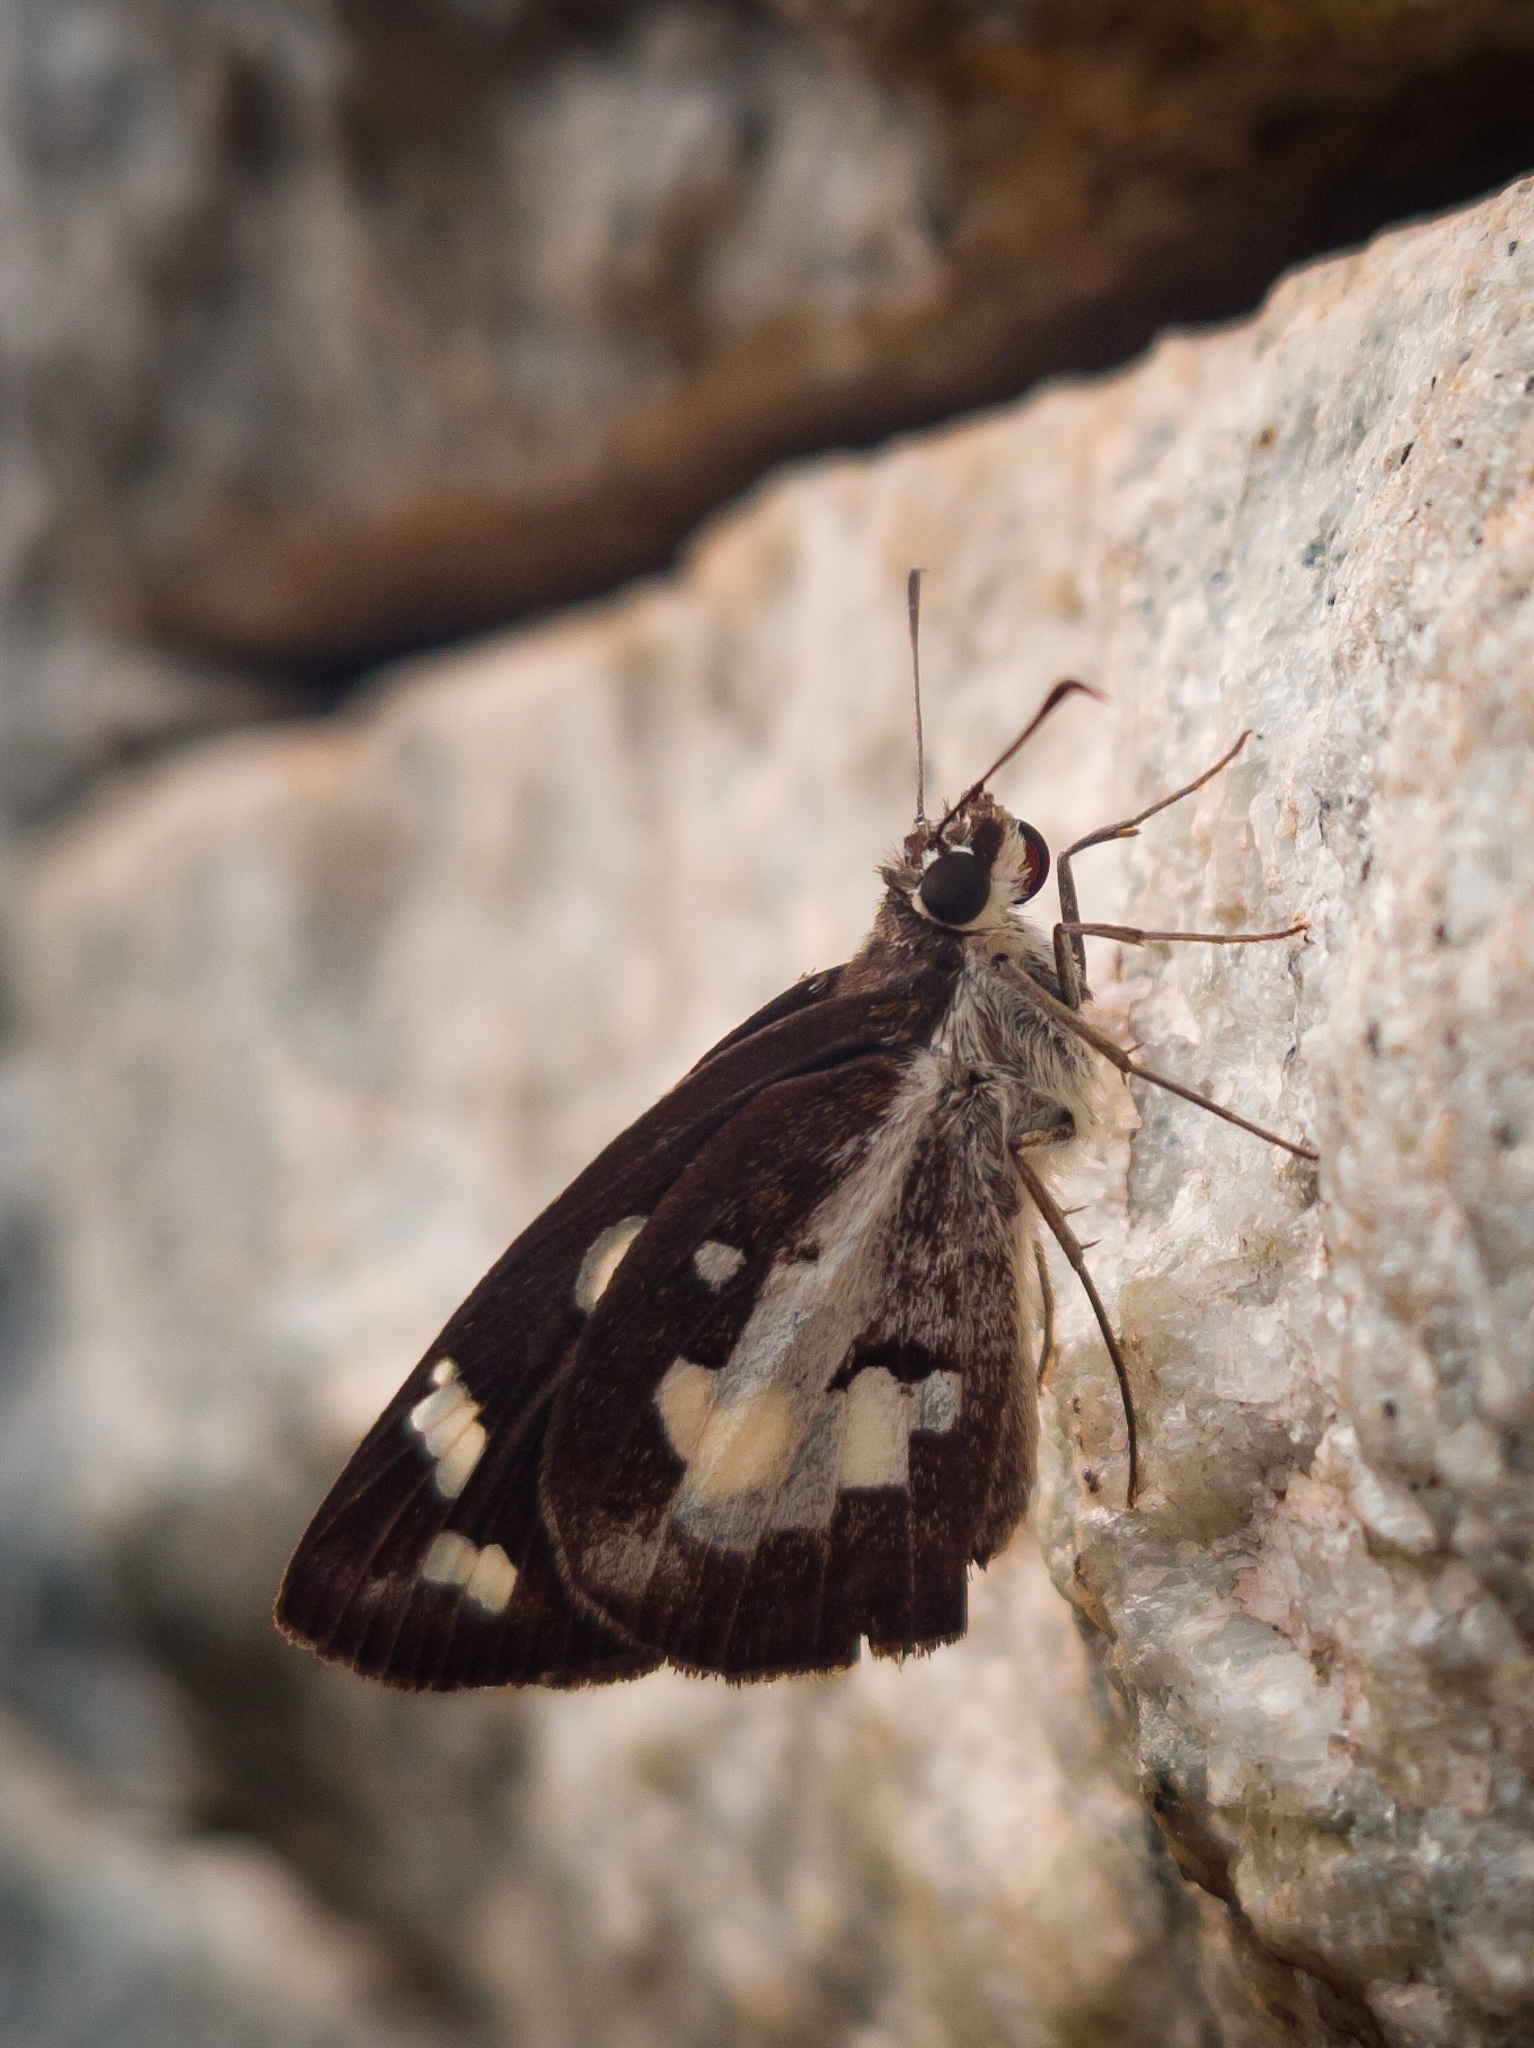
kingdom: Animalia
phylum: Arthropoda
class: Insecta
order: Lepidoptera
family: Hesperiidae
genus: Udaspes
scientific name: Udaspes folus
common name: Grass demon
